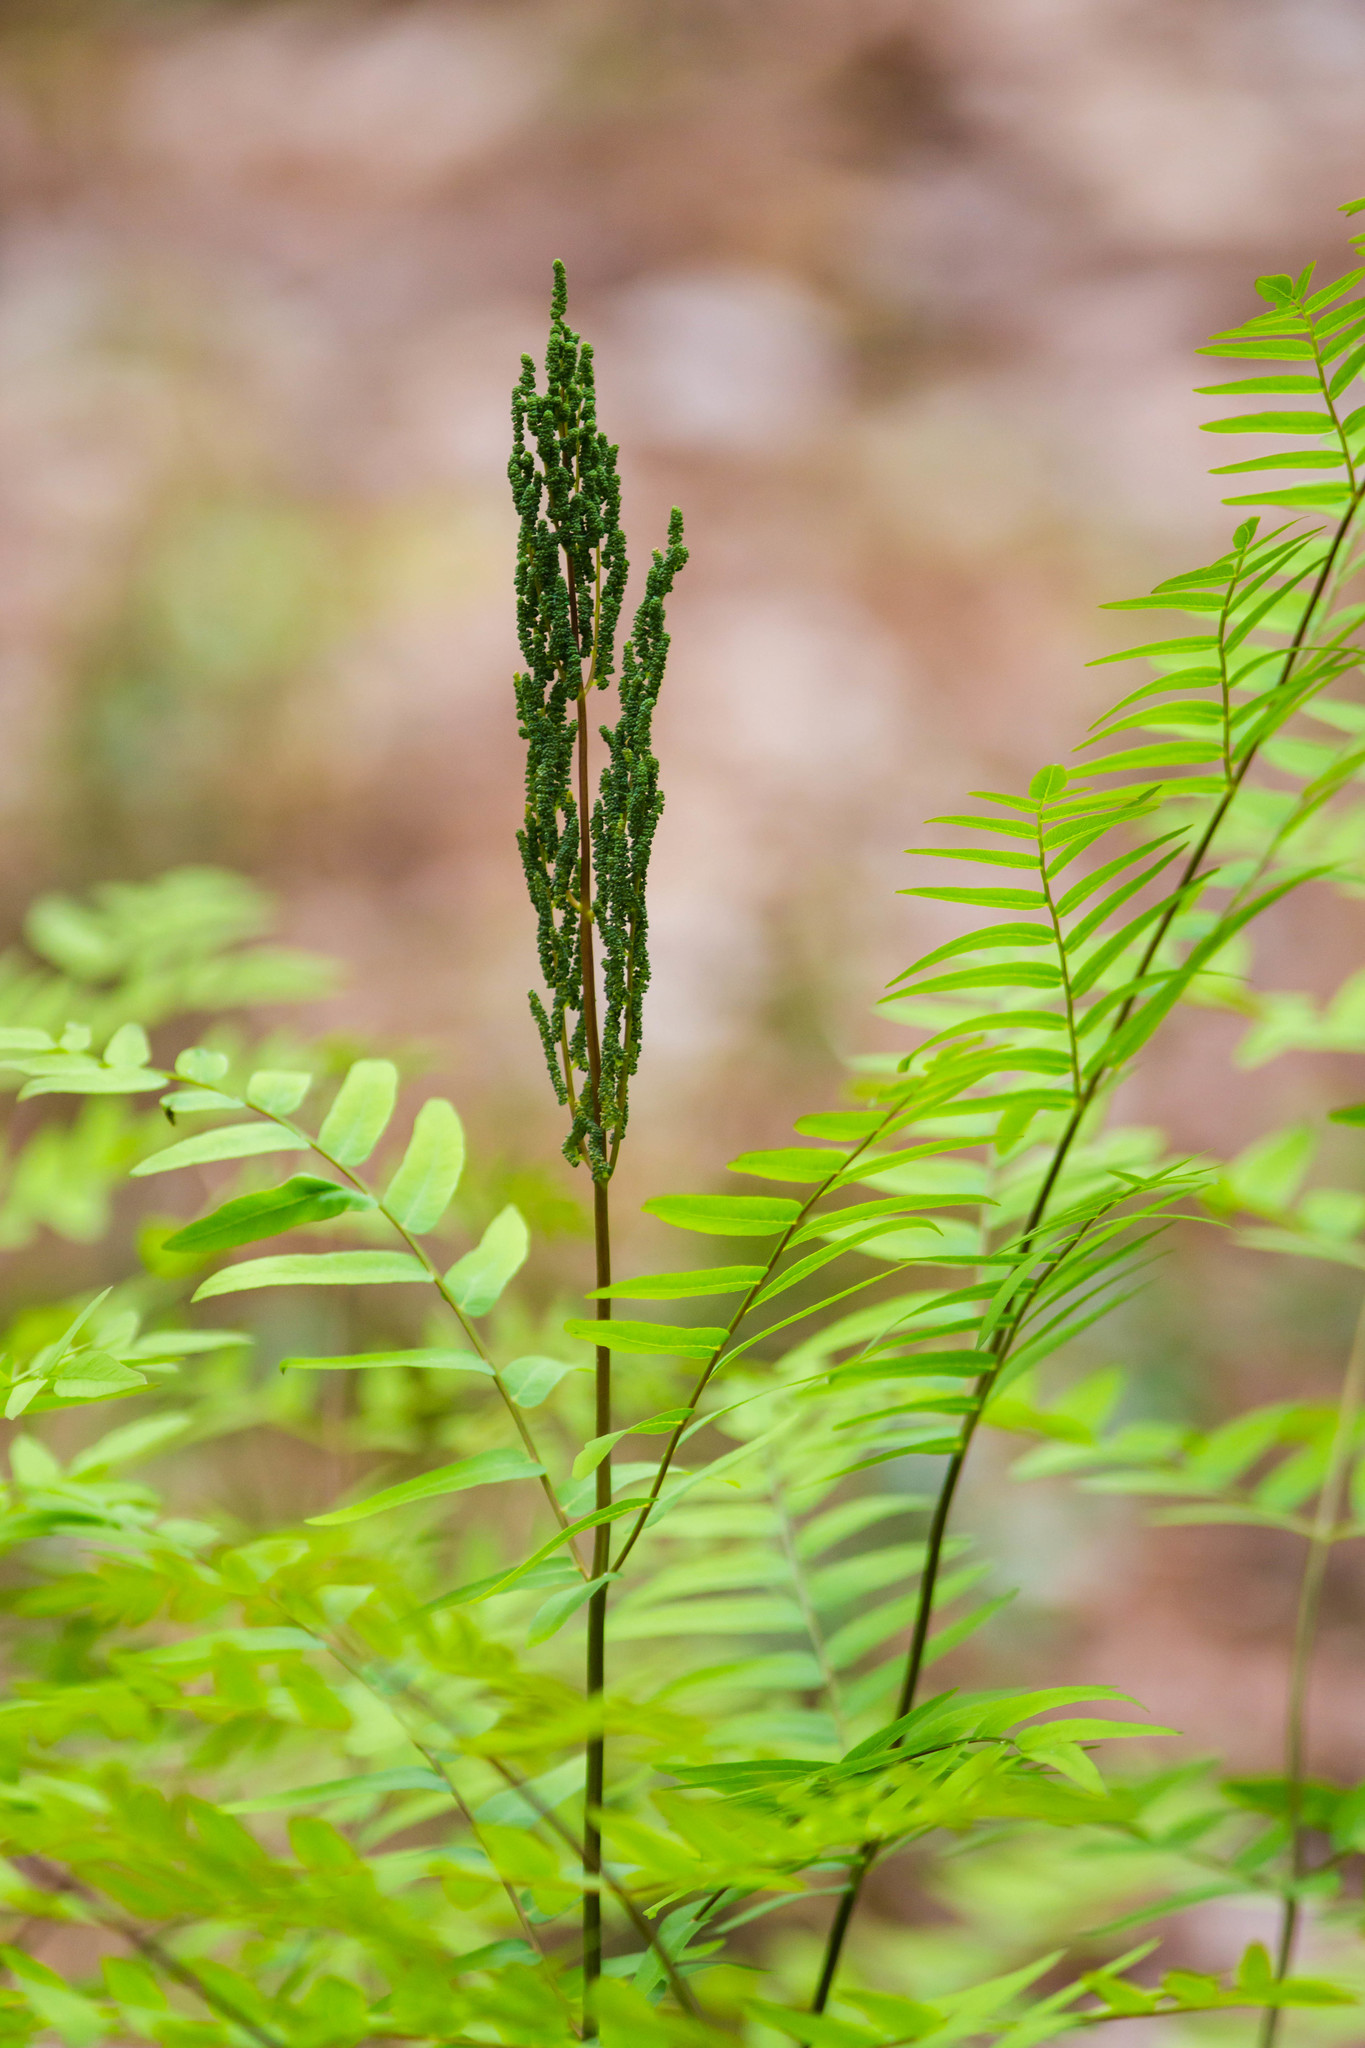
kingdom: Plantae
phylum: Tracheophyta
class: Polypodiopsida
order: Osmundales
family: Osmundaceae
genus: Osmunda
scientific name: Osmunda spectabilis
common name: American royal fern
